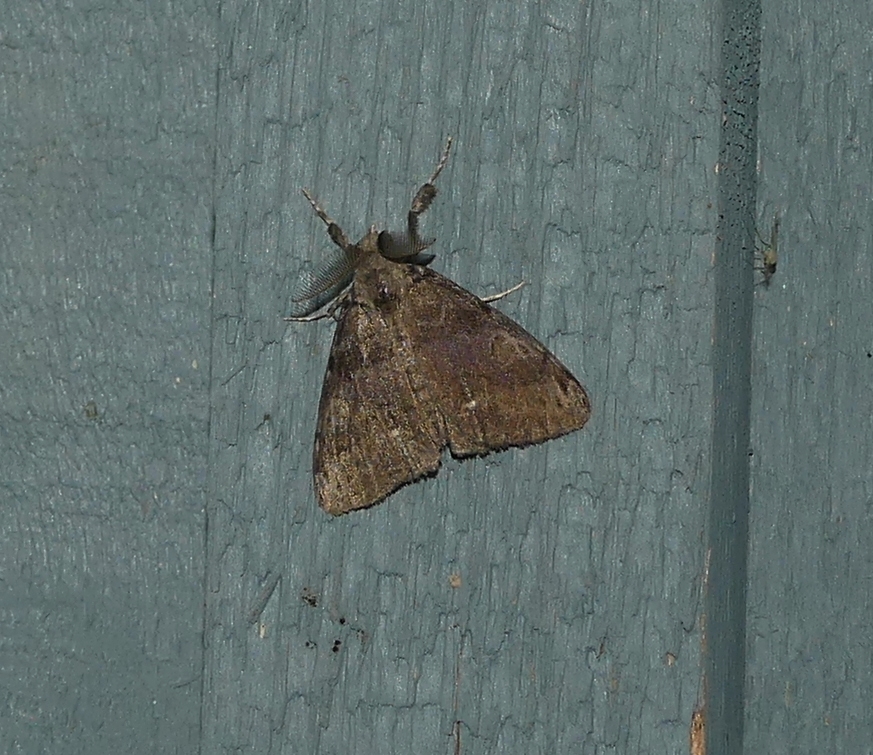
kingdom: Animalia
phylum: Arthropoda
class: Insecta
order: Lepidoptera
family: Erebidae
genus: Orgyia
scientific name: Orgyia leucostigma
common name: White-marked tussock moth
